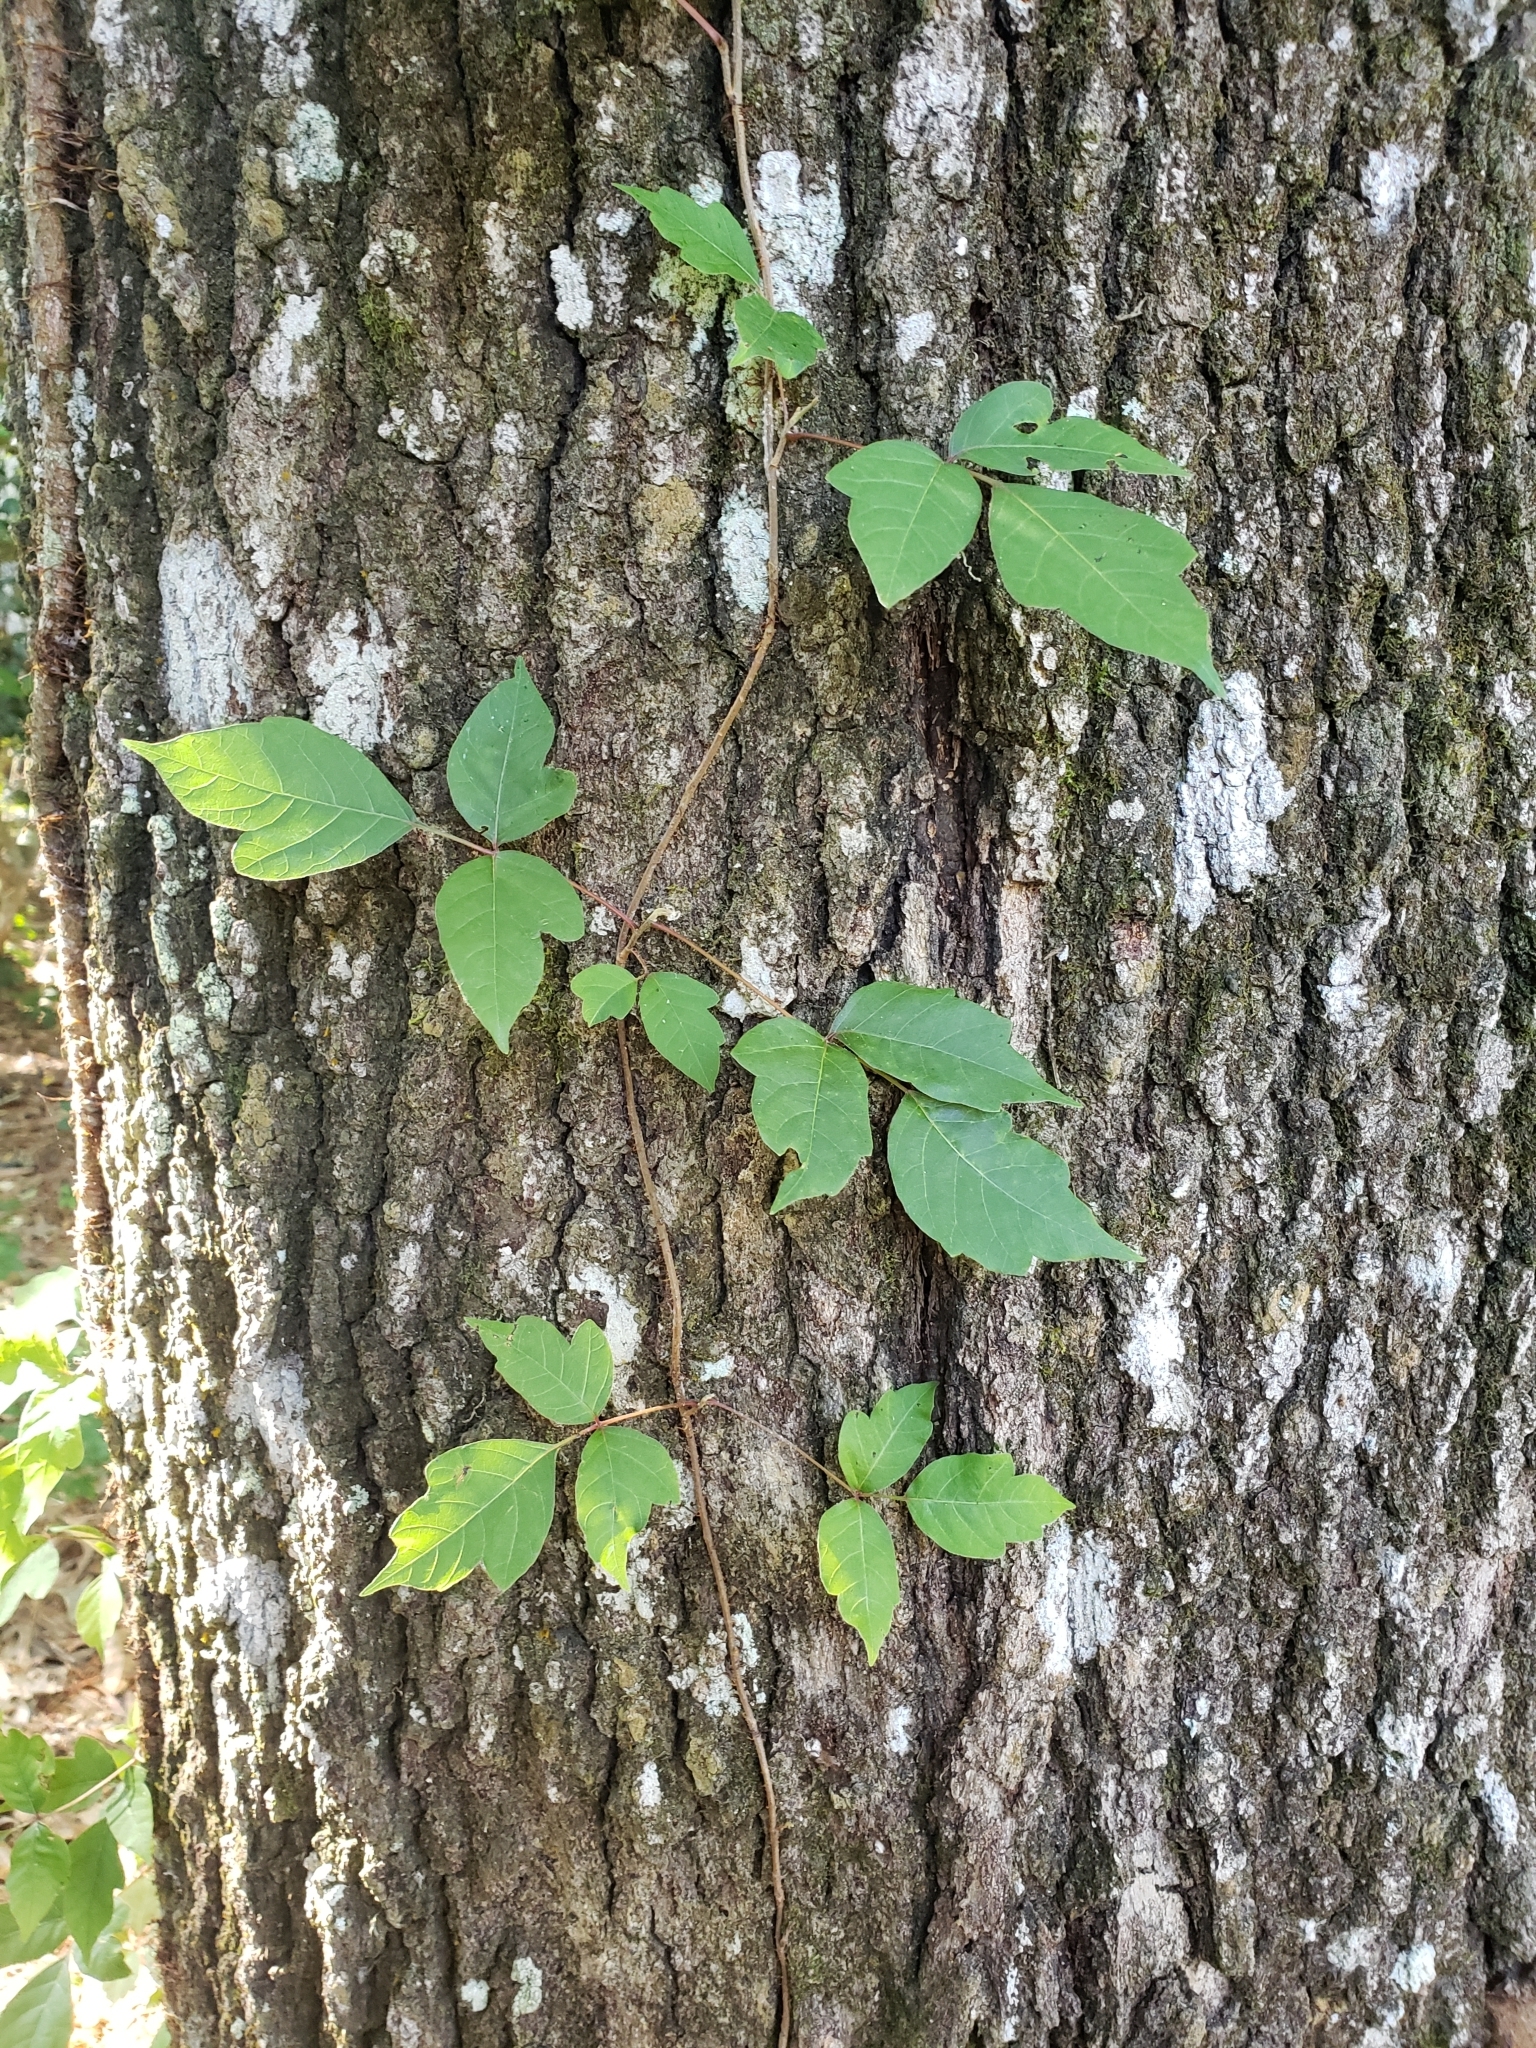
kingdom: Plantae
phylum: Tracheophyta
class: Magnoliopsida
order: Sapindales
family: Anacardiaceae
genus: Toxicodendron
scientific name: Toxicodendron radicans
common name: Poison ivy
